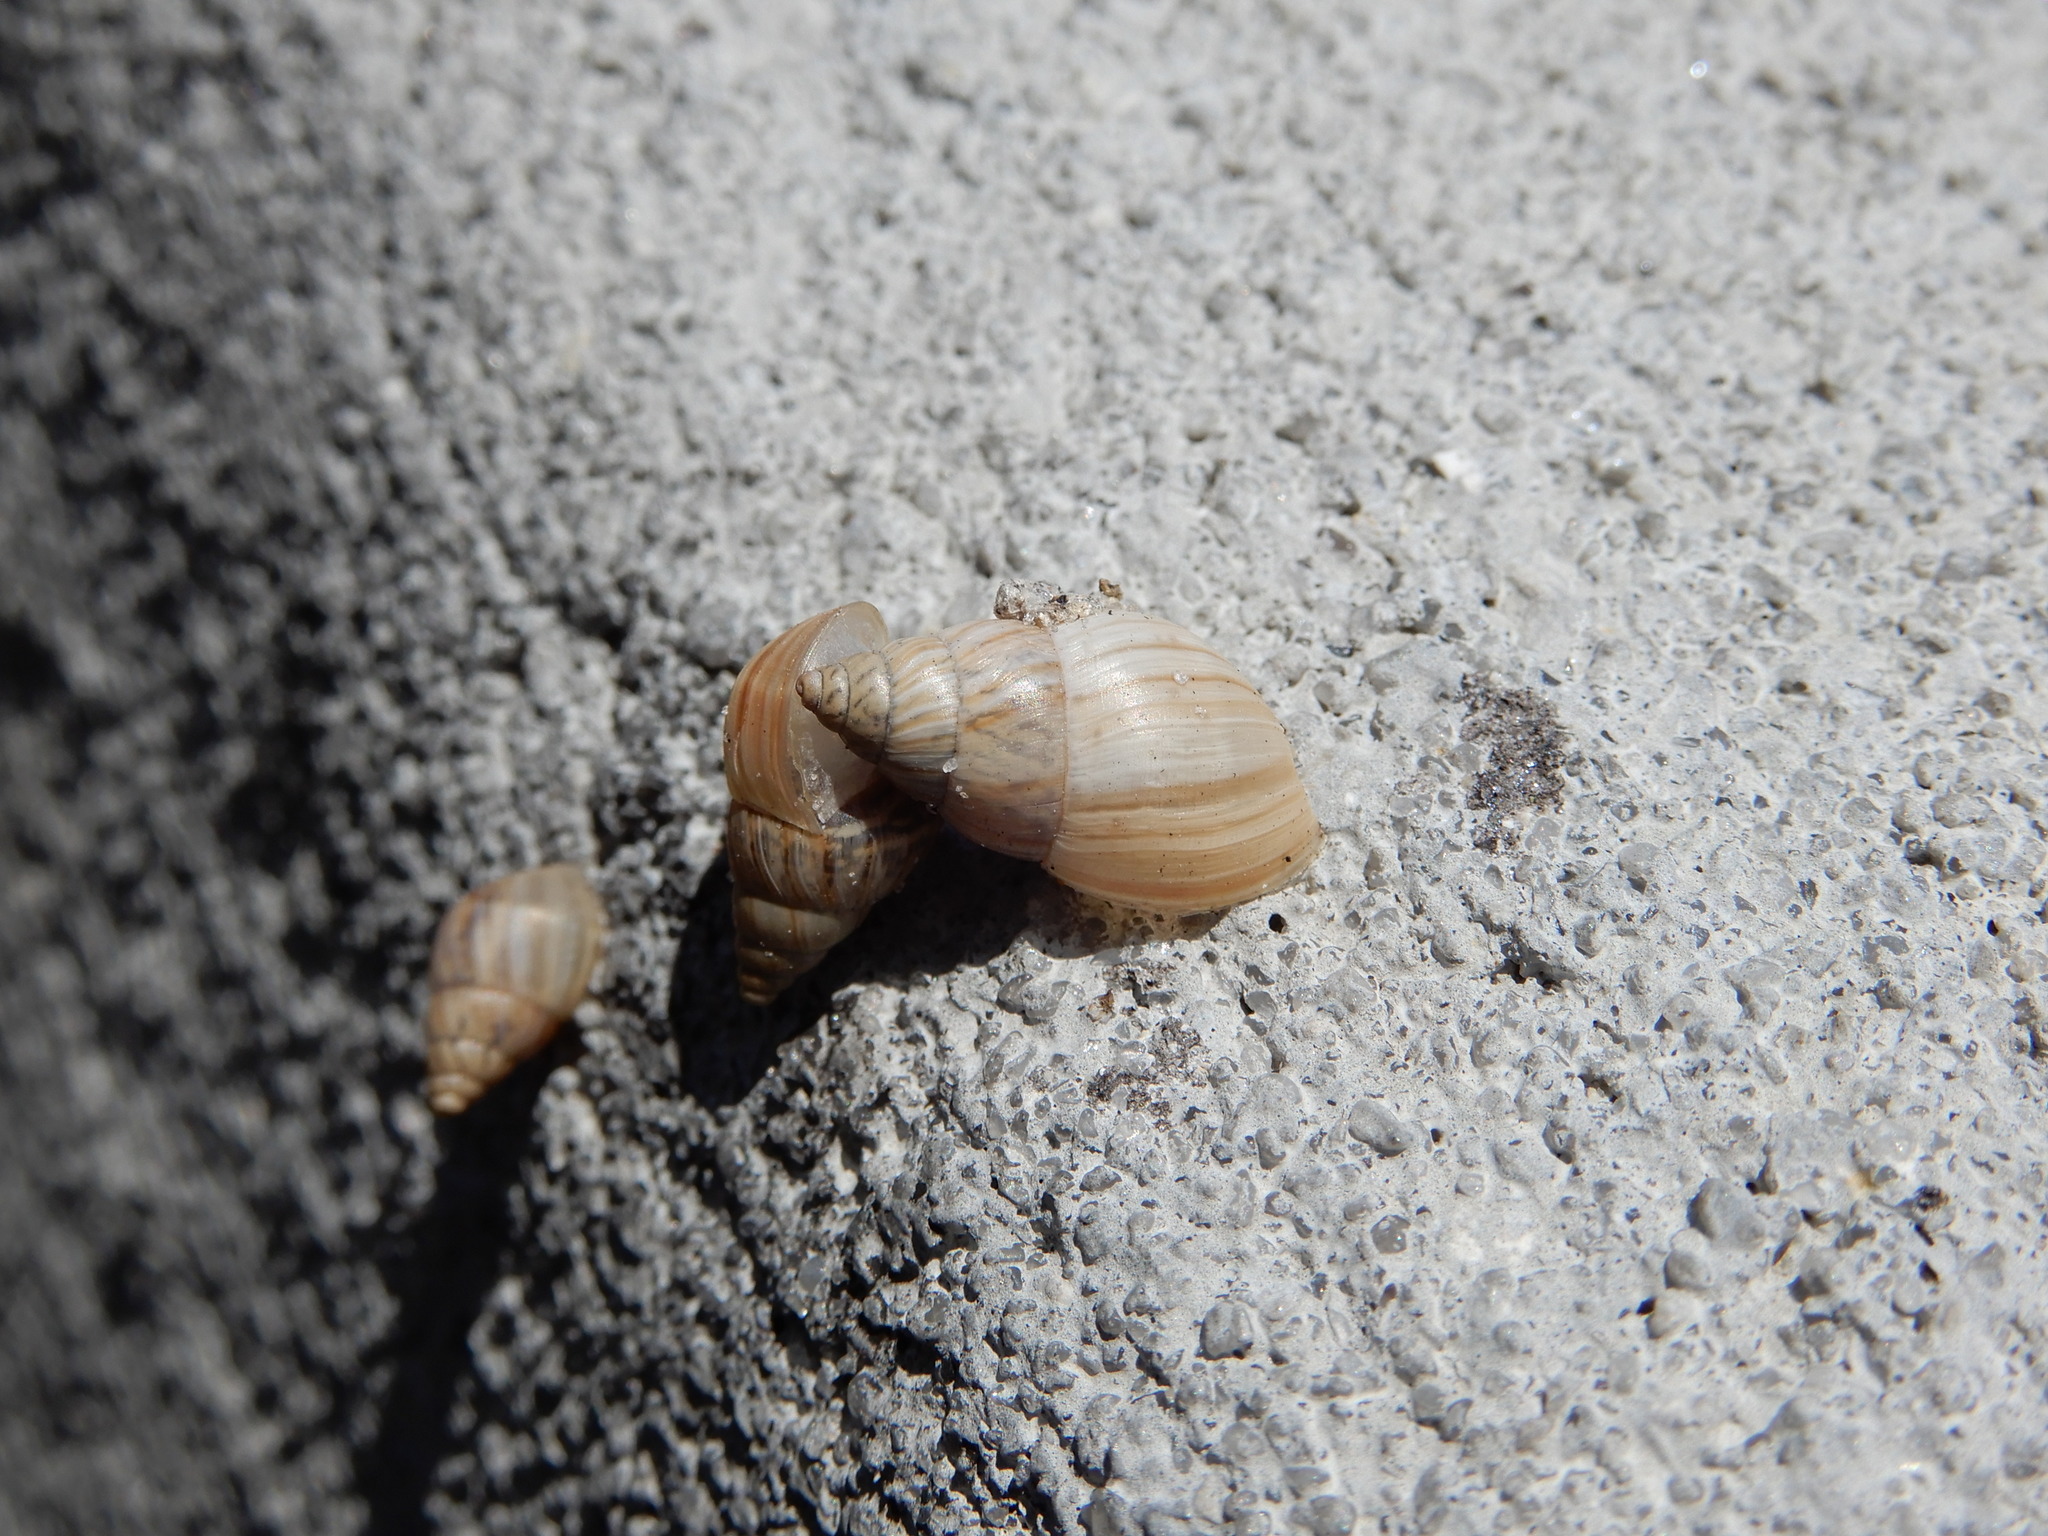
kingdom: Animalia
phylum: Mollusca
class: Gastropoda
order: Stylommatophora
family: Bulimulidae
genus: Bulimulus
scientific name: Bulimulus bonariensis
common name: Snail
